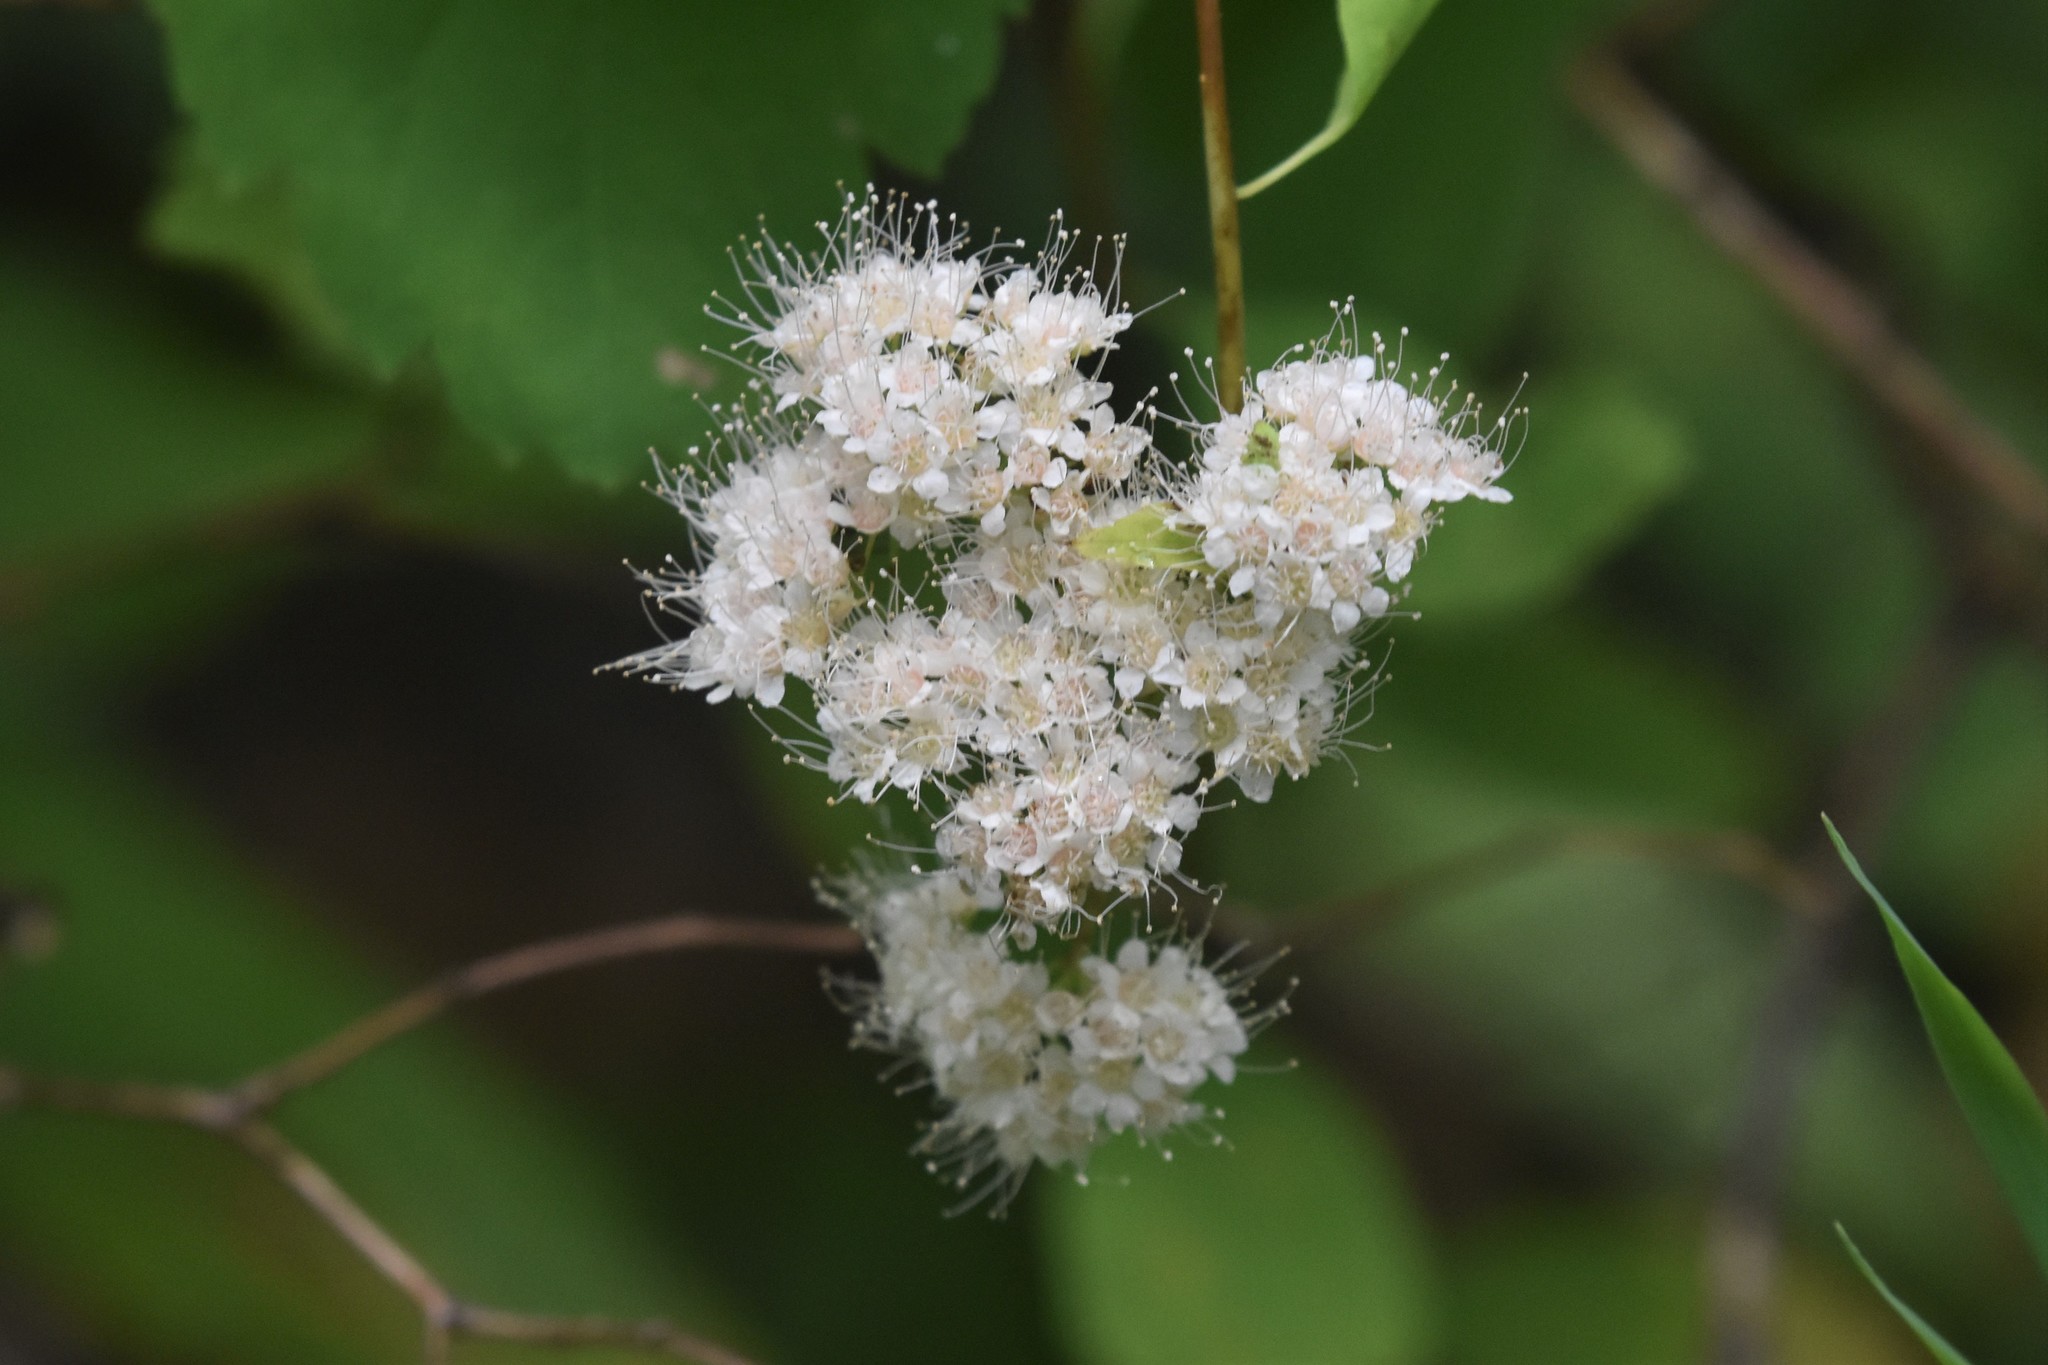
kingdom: Plantae
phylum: Tracheophyta
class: Magnoliopsida
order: Rosales
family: Rosaceae
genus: Spiraea
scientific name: Spiraea lucida
